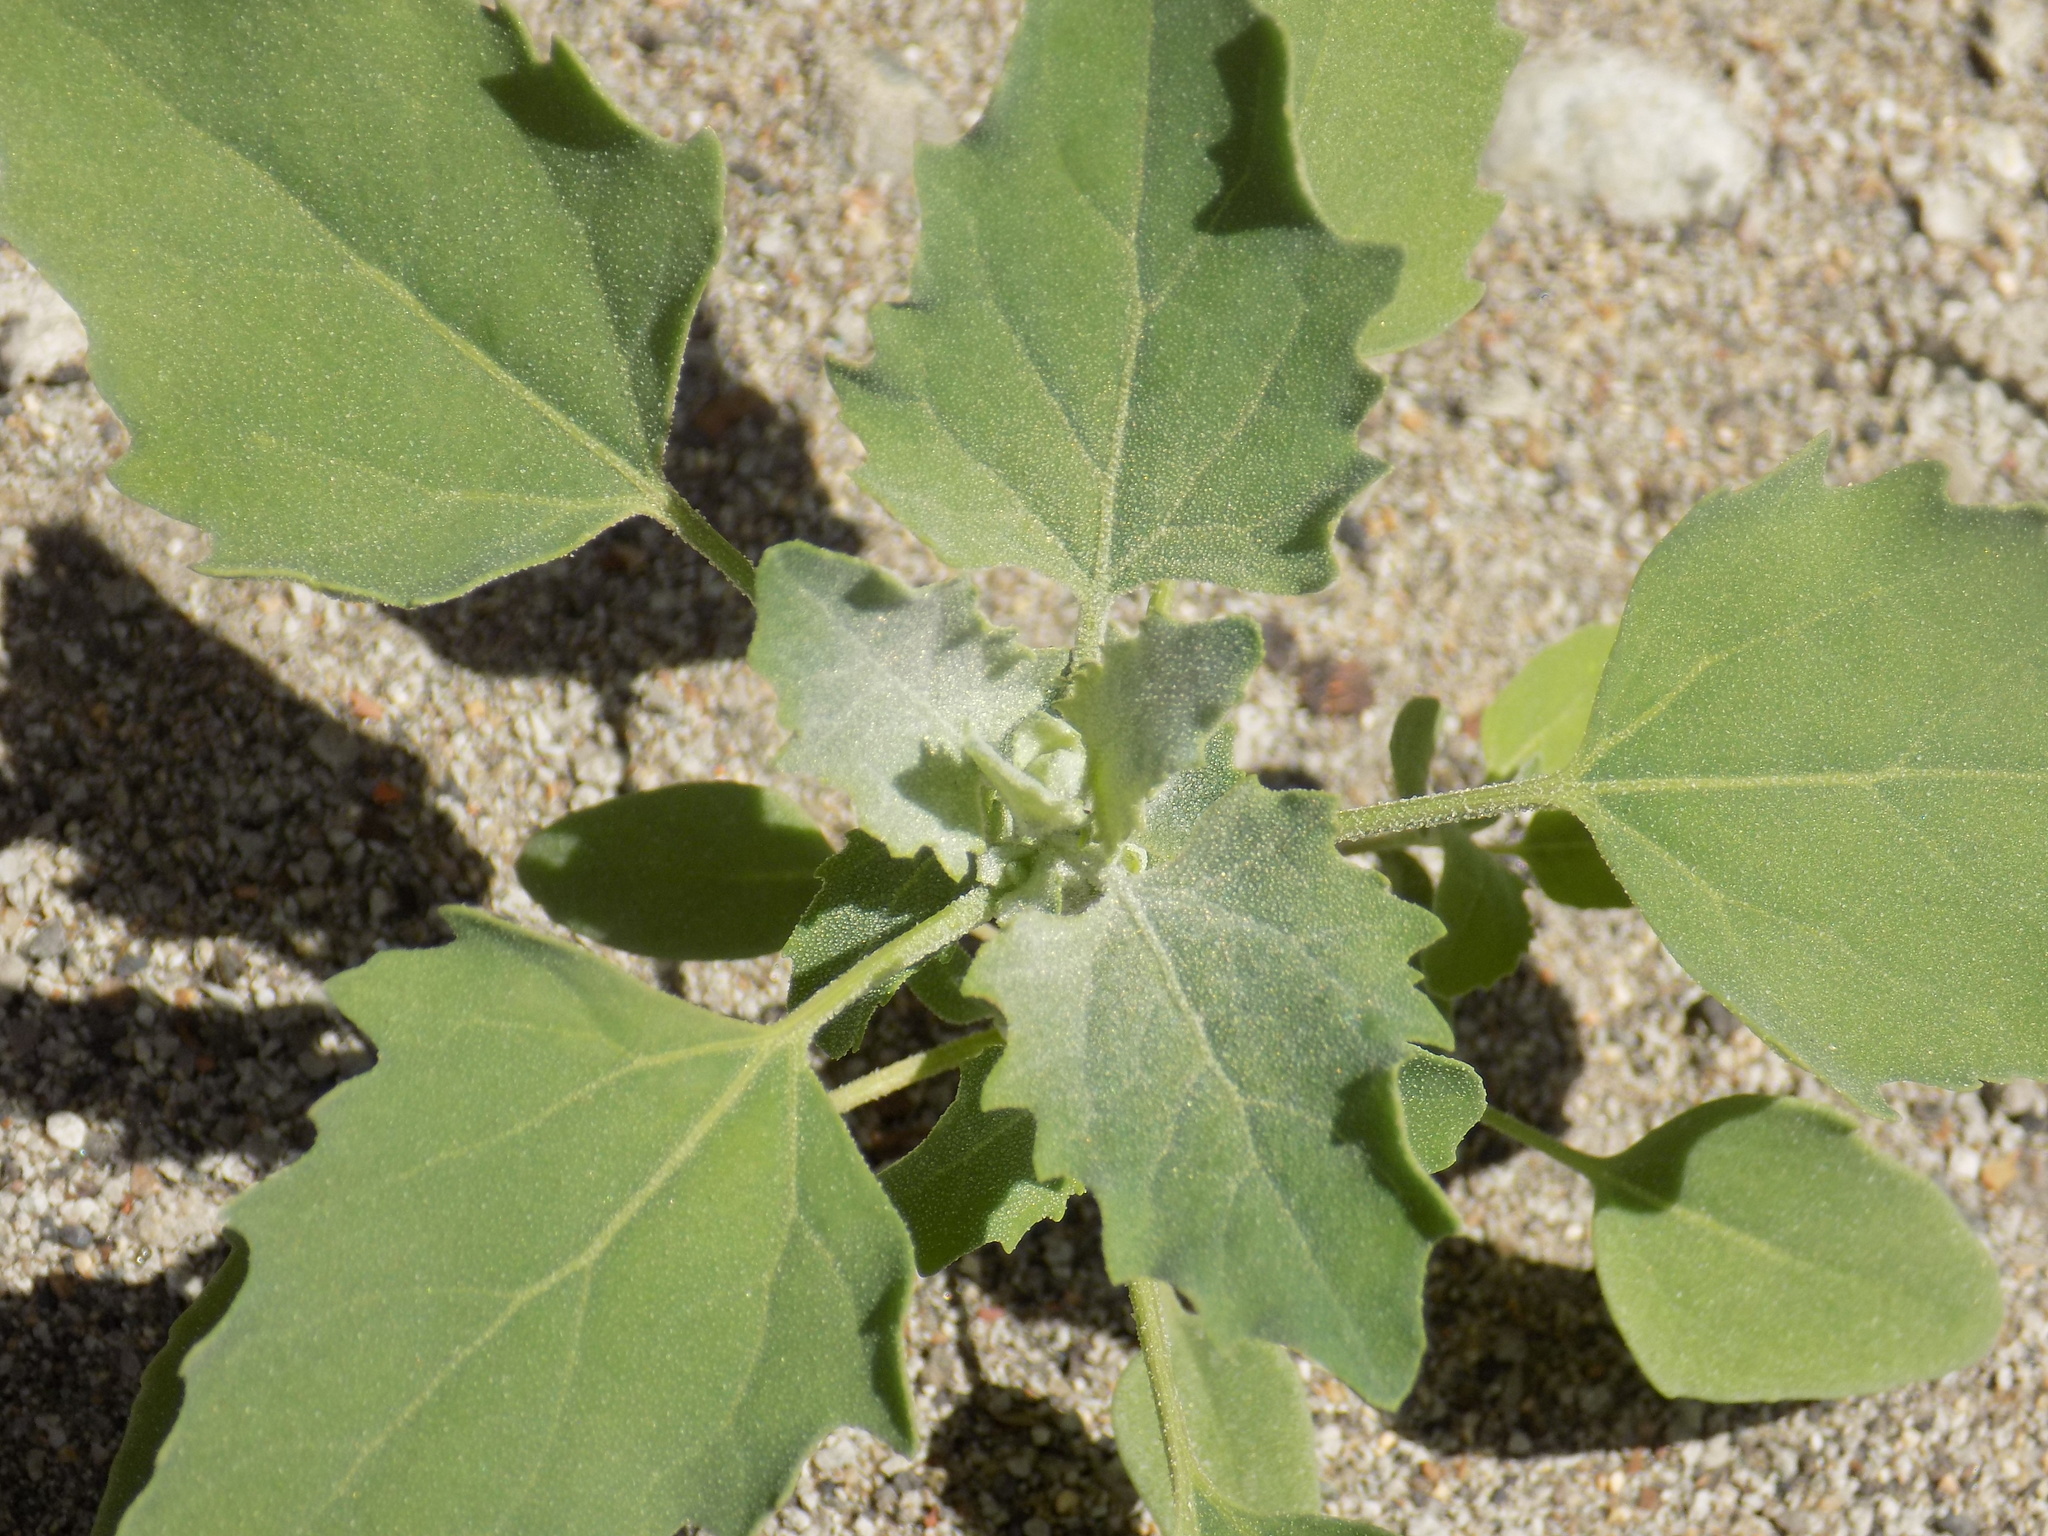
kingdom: Plantae
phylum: Tracheophyta
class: Magnoliopsida
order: Caryophyllales
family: Amaranthaceae
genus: Chenopodium
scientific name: Chenopodium album
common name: Fat-hen
